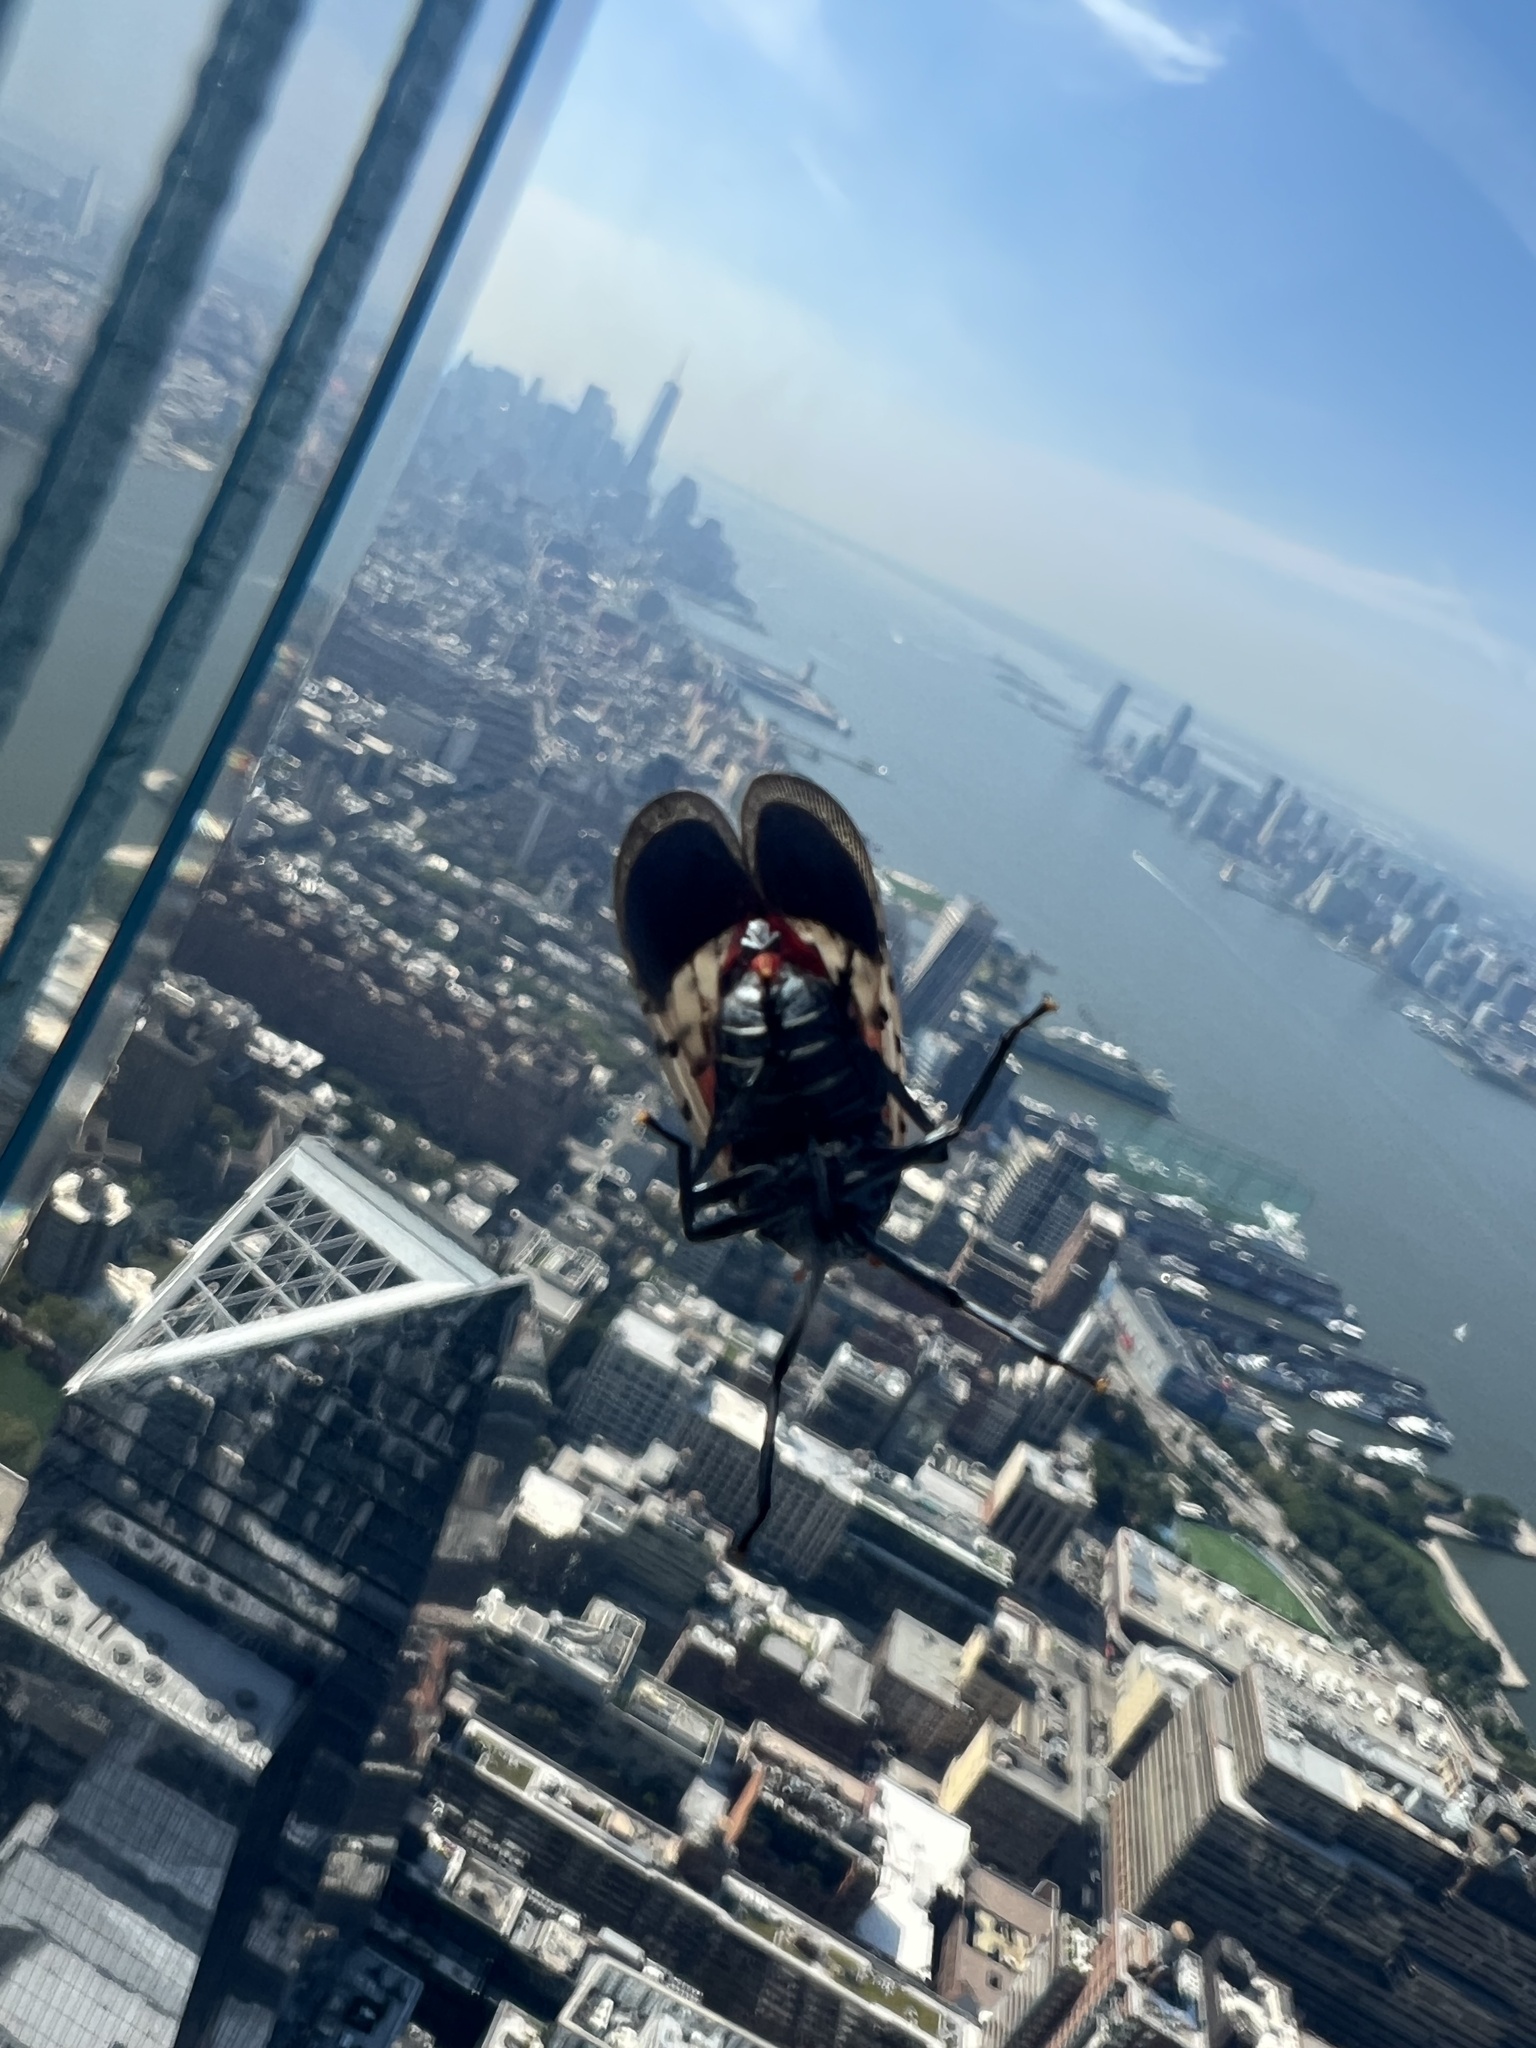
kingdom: Animalia
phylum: Arthropoda
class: Insecta
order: Hemiptera
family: Fulgoridae
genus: Lycorma
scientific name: Lycorma delicatula
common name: Spotted lanternfly
